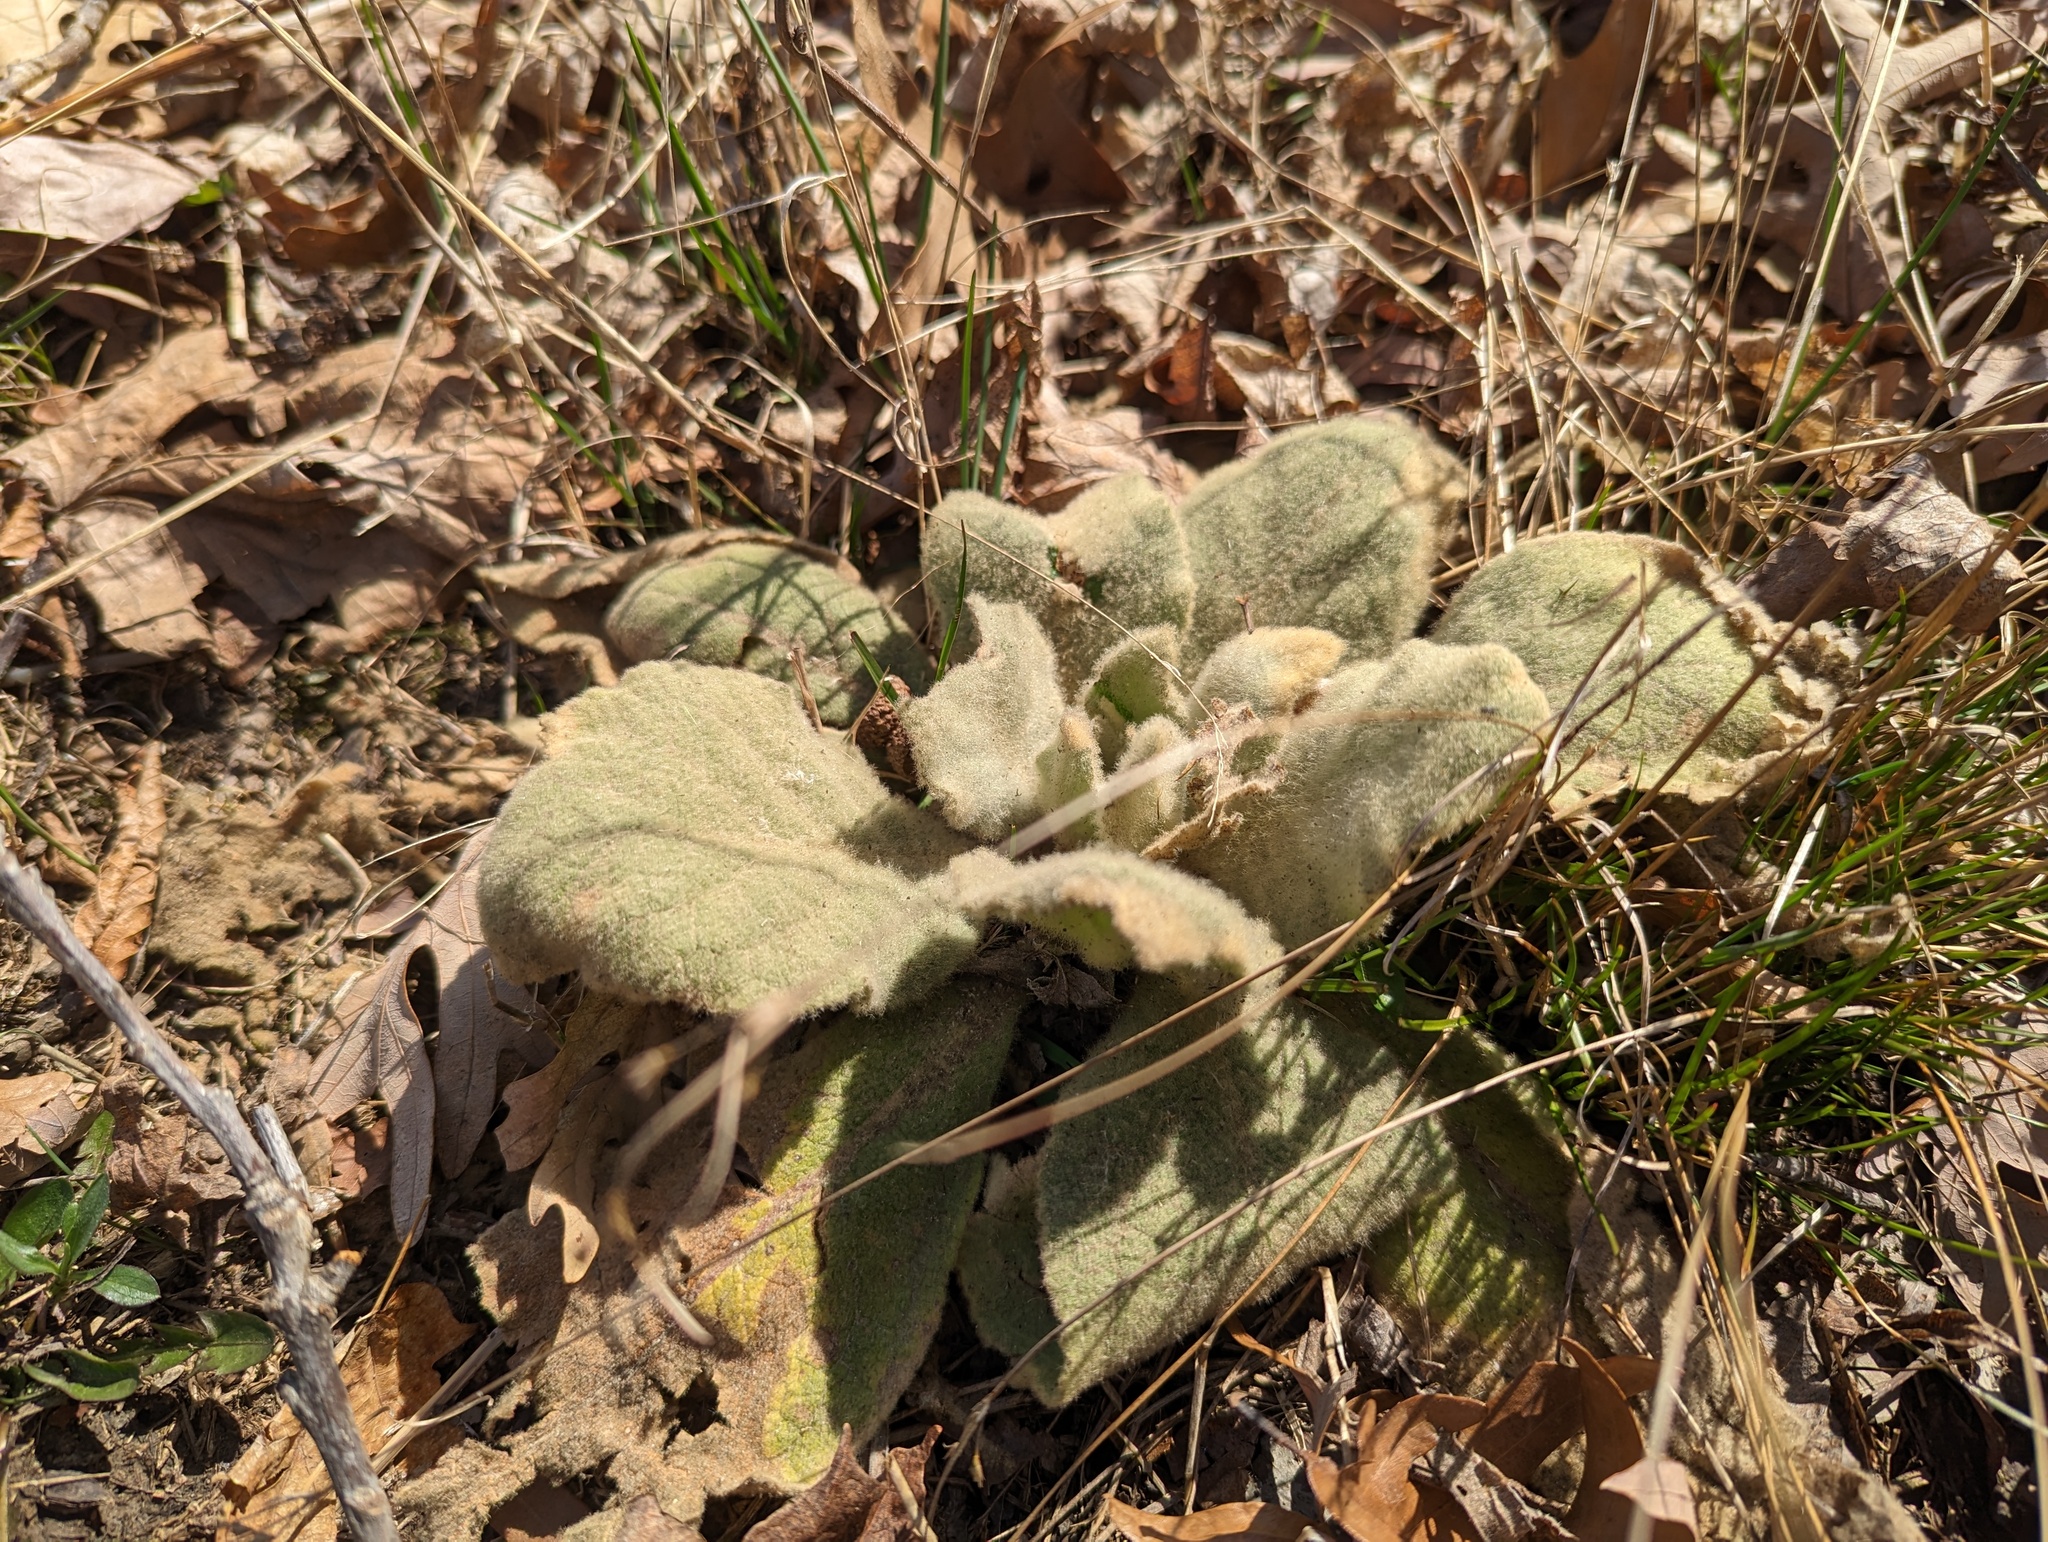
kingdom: Plantae
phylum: Tracheophyta
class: Magnoliopsida
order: Lamiales
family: Scrophulariaceae
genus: Verbascum
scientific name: Verbascum thapsus
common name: Common mullein
